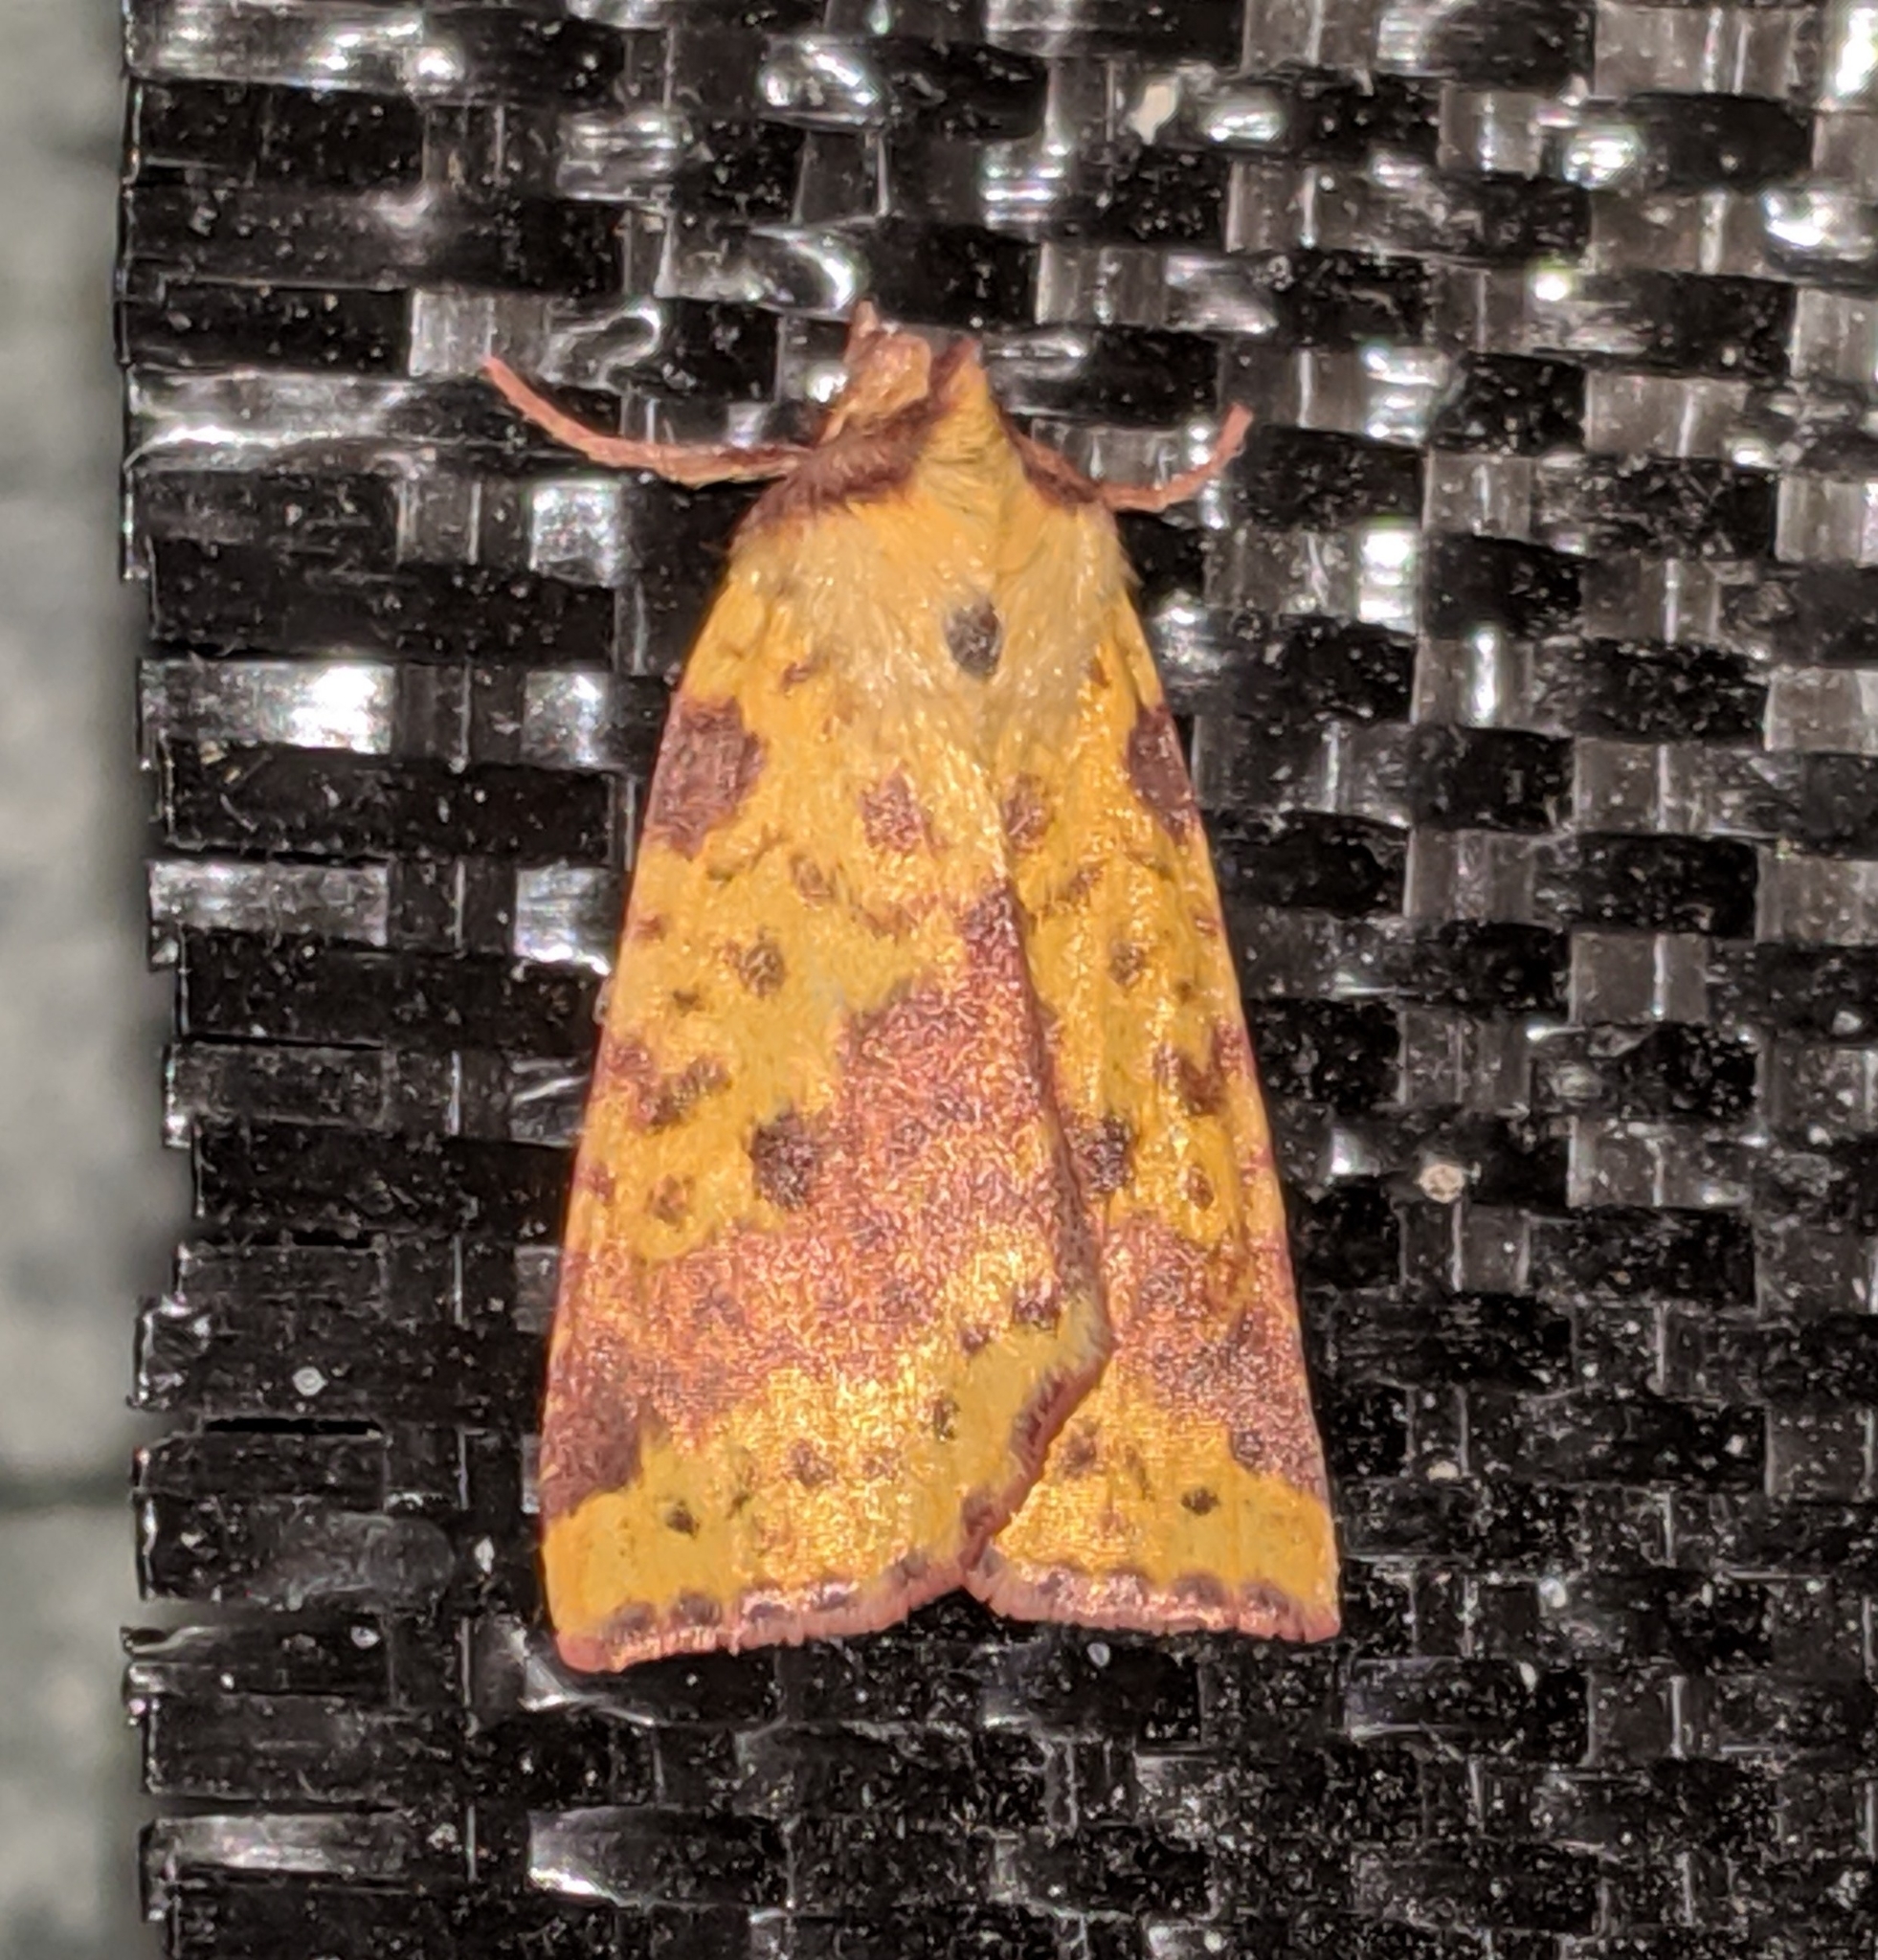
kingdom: Animalia
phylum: Arthropoda
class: Insecta
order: Lepidoptera
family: Noctuidae
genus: Xanthia
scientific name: Xanthia tatago
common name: Pink-banded sallow
